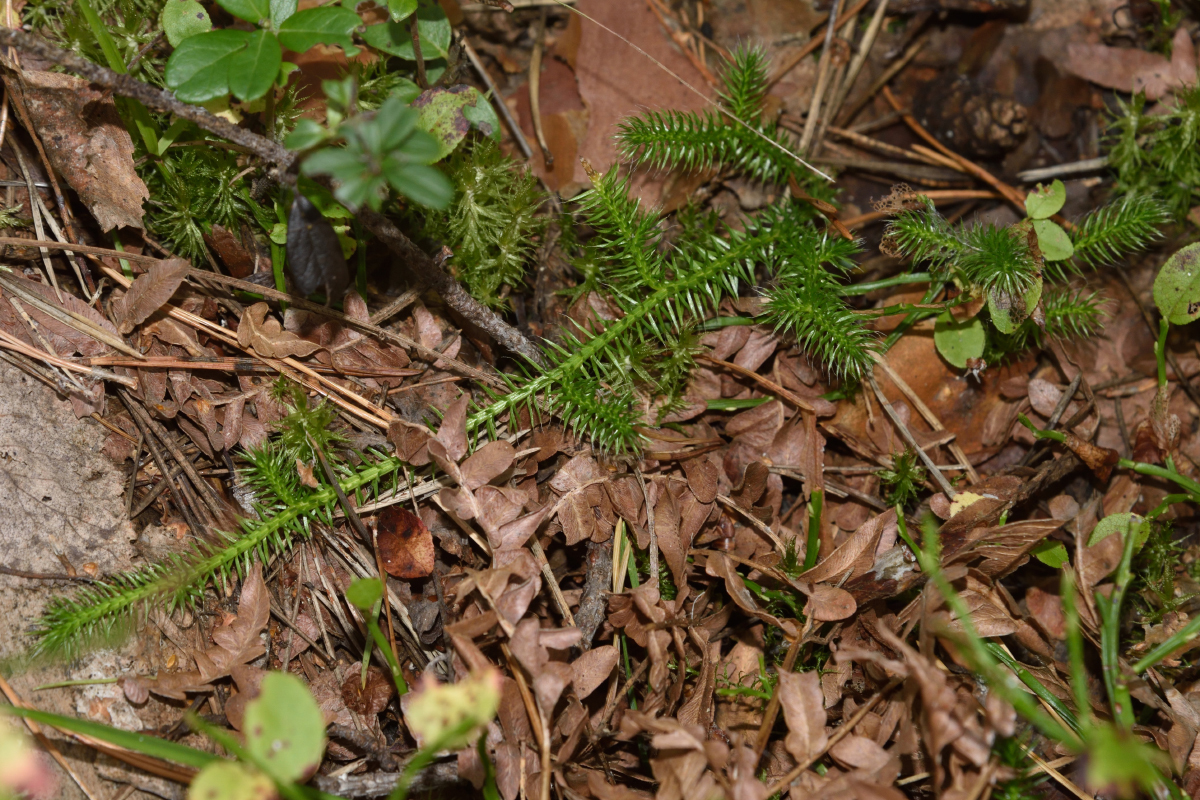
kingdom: Plantae
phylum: Tracheophyta
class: Lycopodiopsida
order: Lycopodiales
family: Lycopodiaceae
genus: Lycopodium
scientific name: Lycopodium clavatum
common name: Stag's-horn clubmoss
